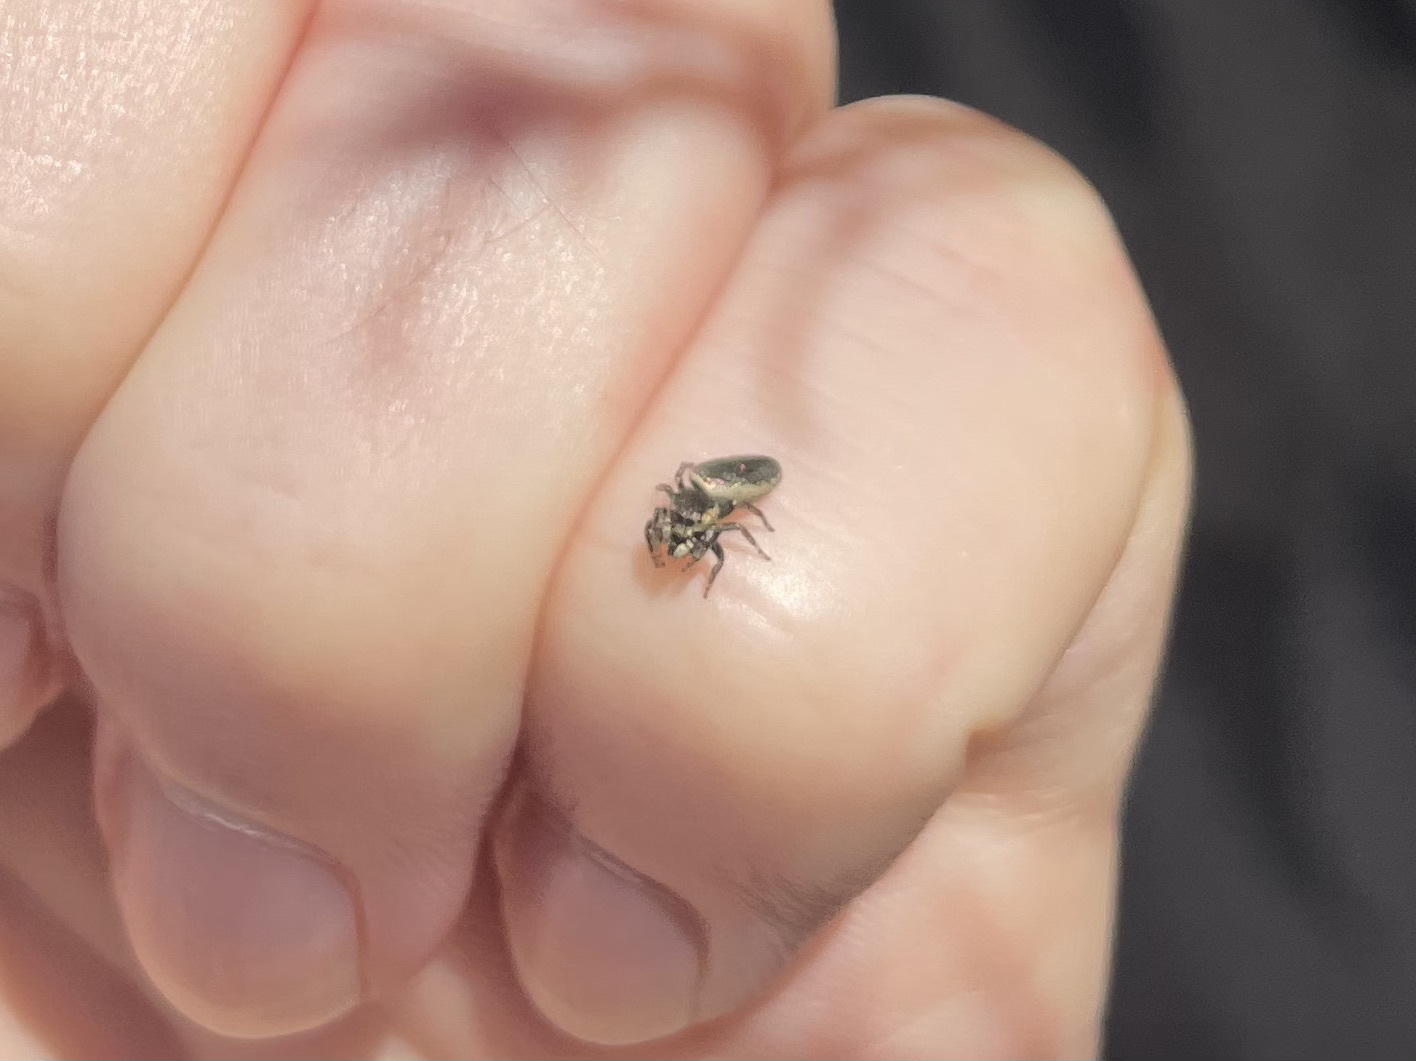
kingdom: Animalia
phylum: Arthropoda
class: Arachnida
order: Araneae
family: Salticidae
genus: Sassacus
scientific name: Sassacus papenhoei
